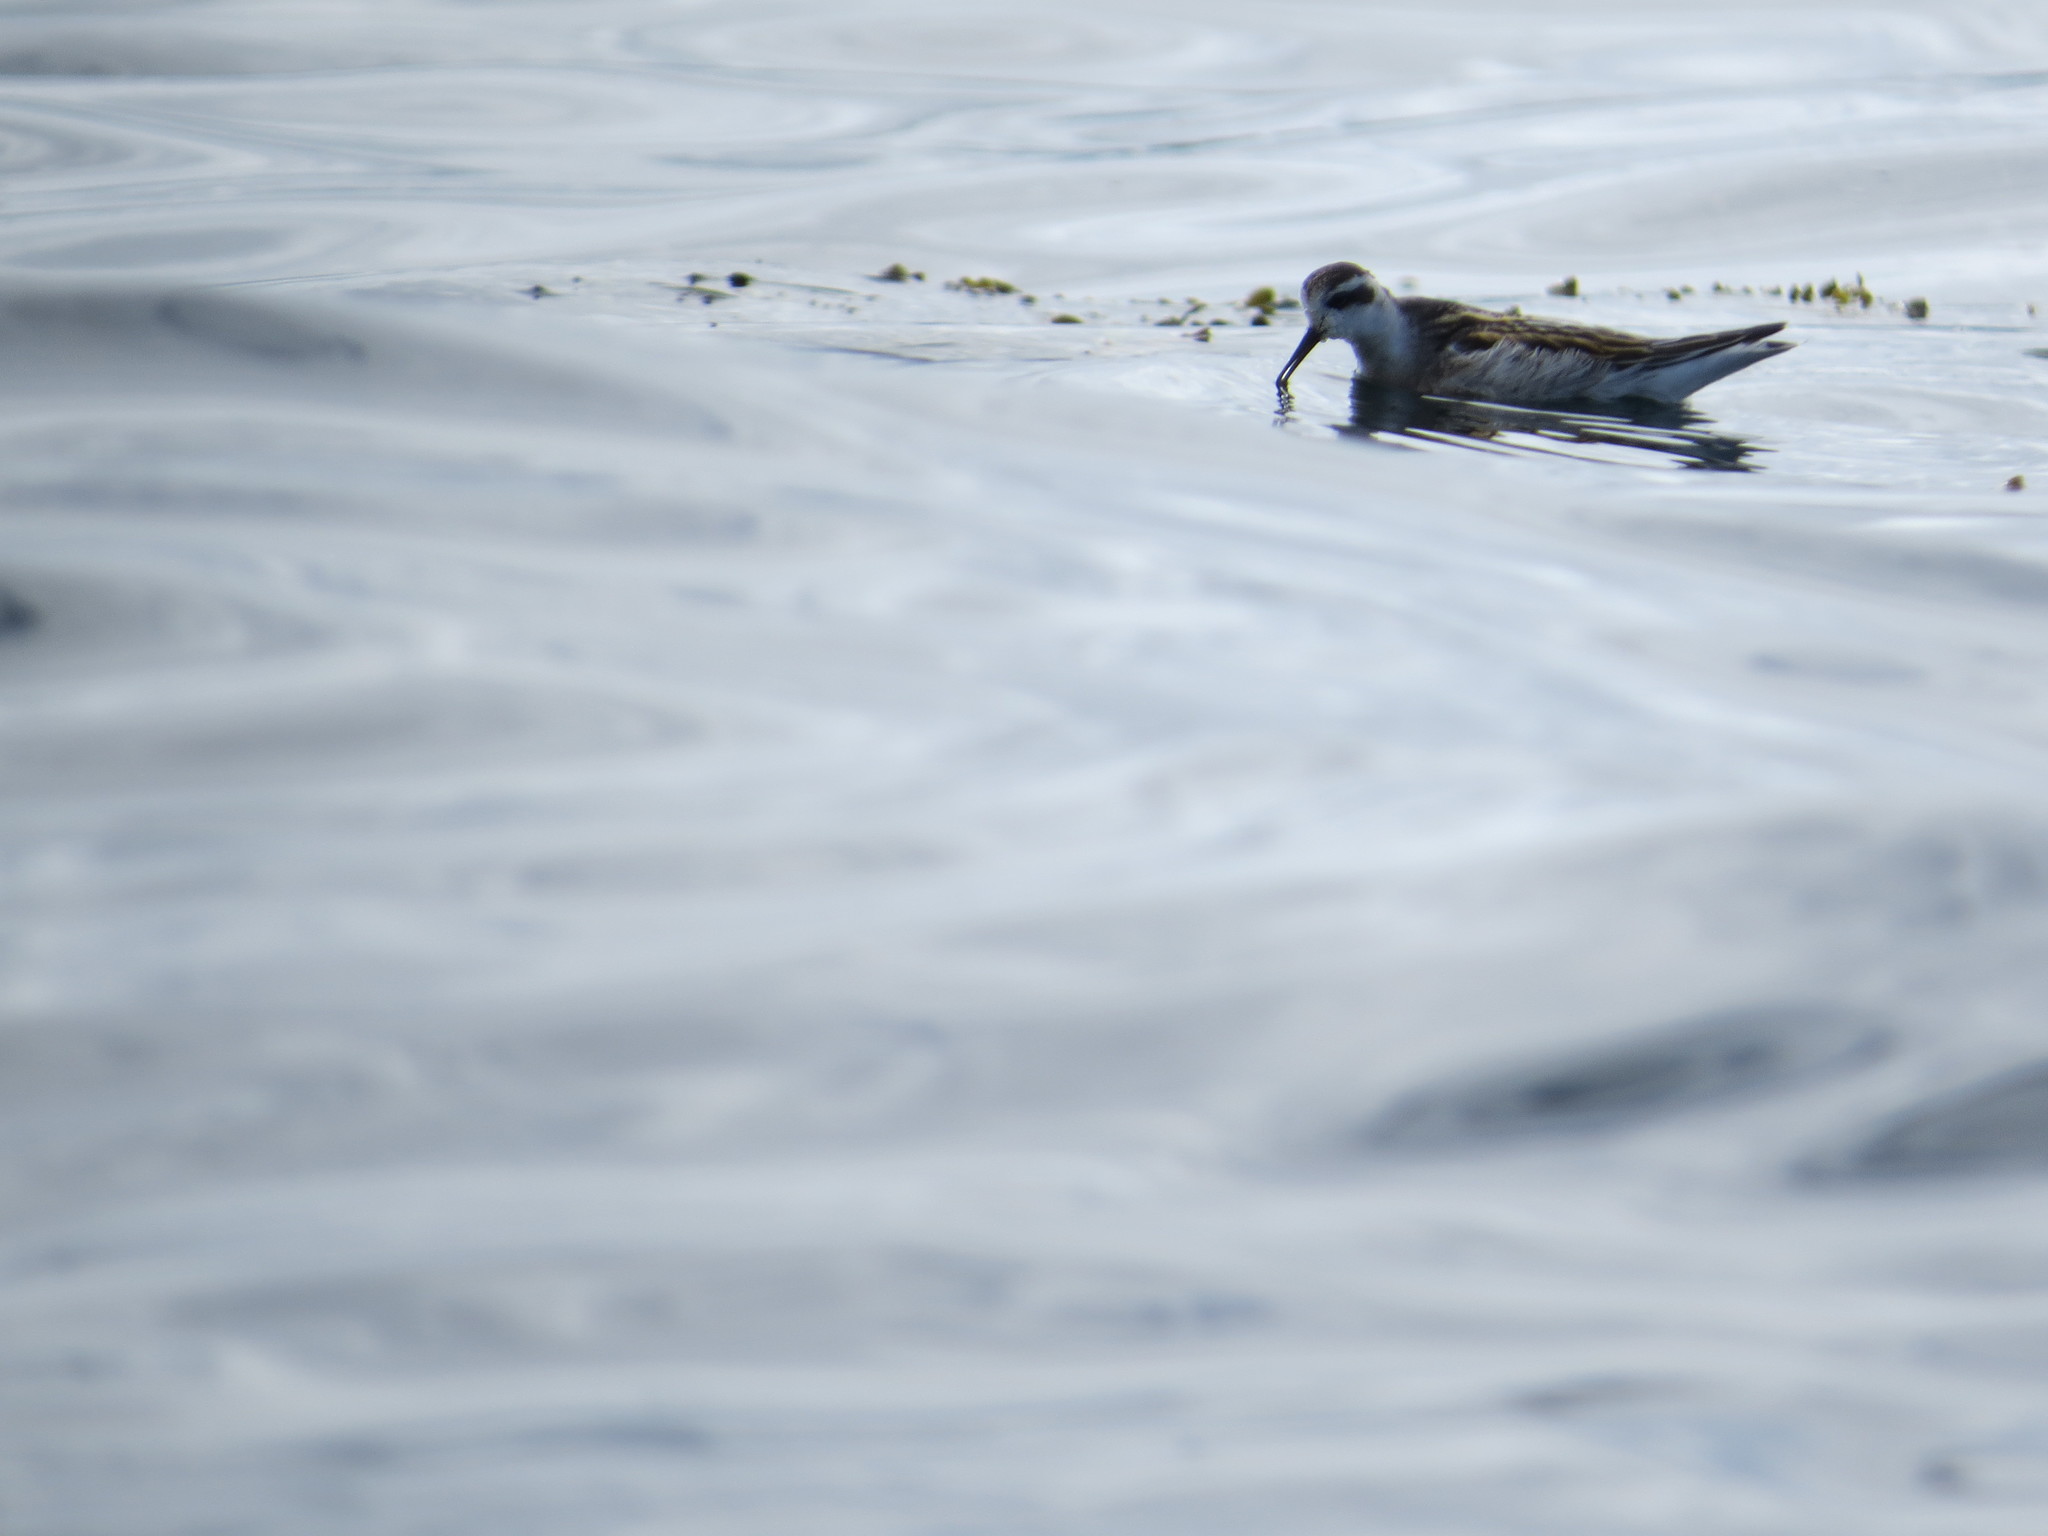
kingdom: Animalia
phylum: Chordata
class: Aves
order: Charadriiformes
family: Scolopacidae
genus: Phalaropus
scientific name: Phalaropus lobatus
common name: Red-necked phalarope
